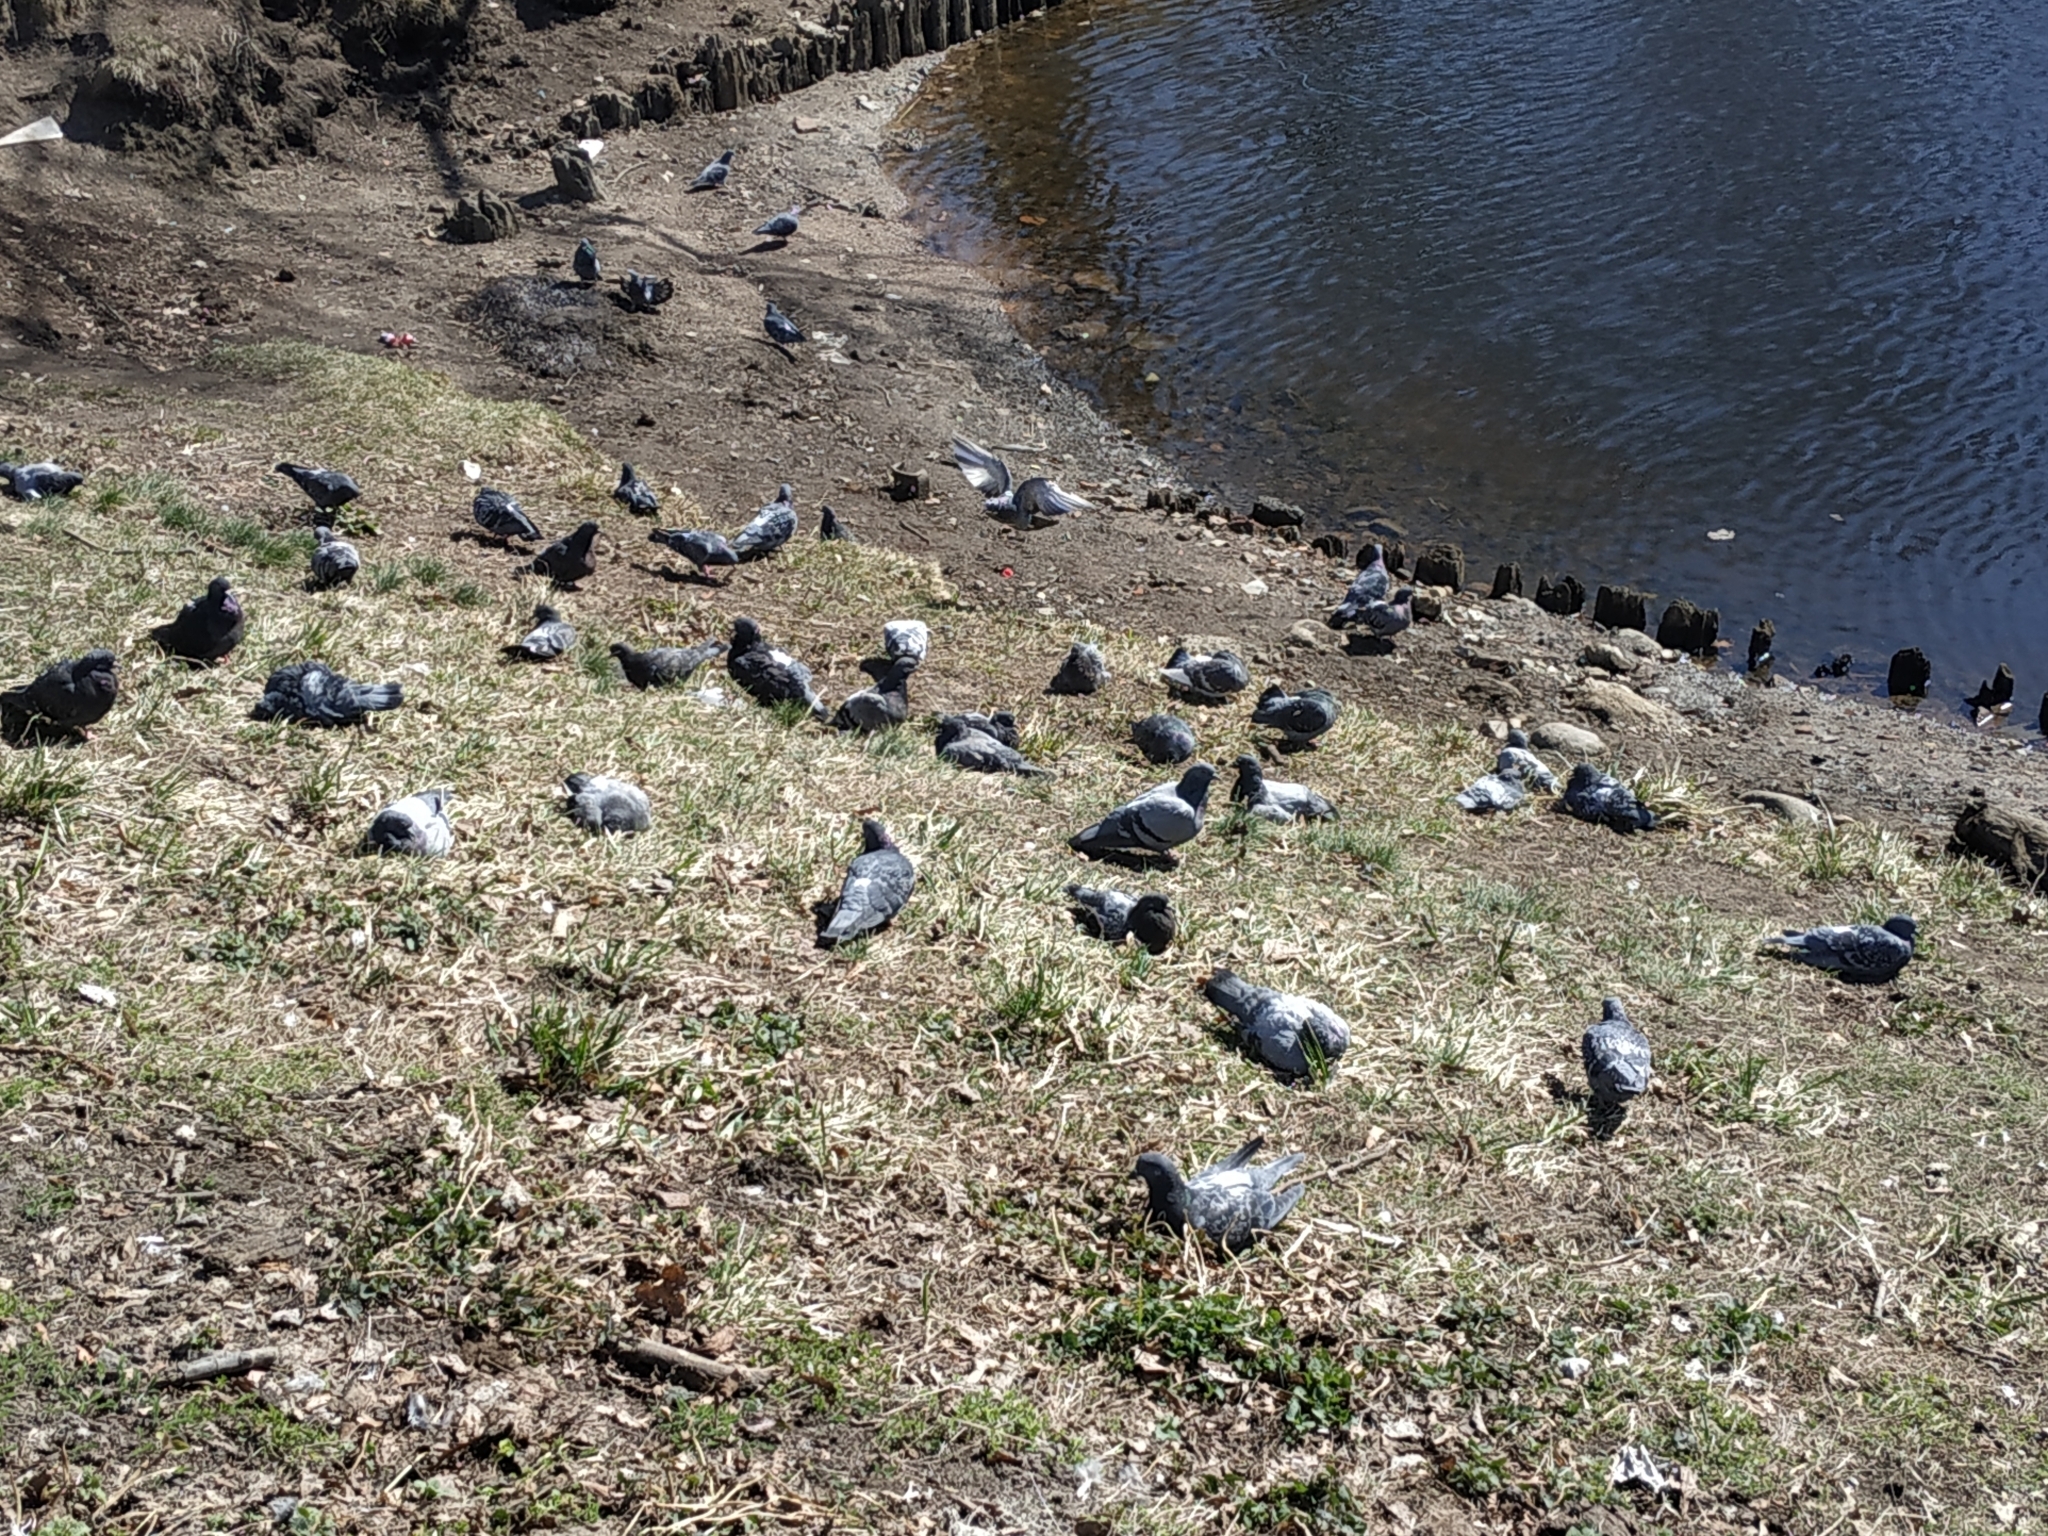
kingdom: Animalia
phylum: Chordata
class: Aves
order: Columbiformes
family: Columbidae
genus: Columba
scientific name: Columba livia
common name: Rock pigeon
